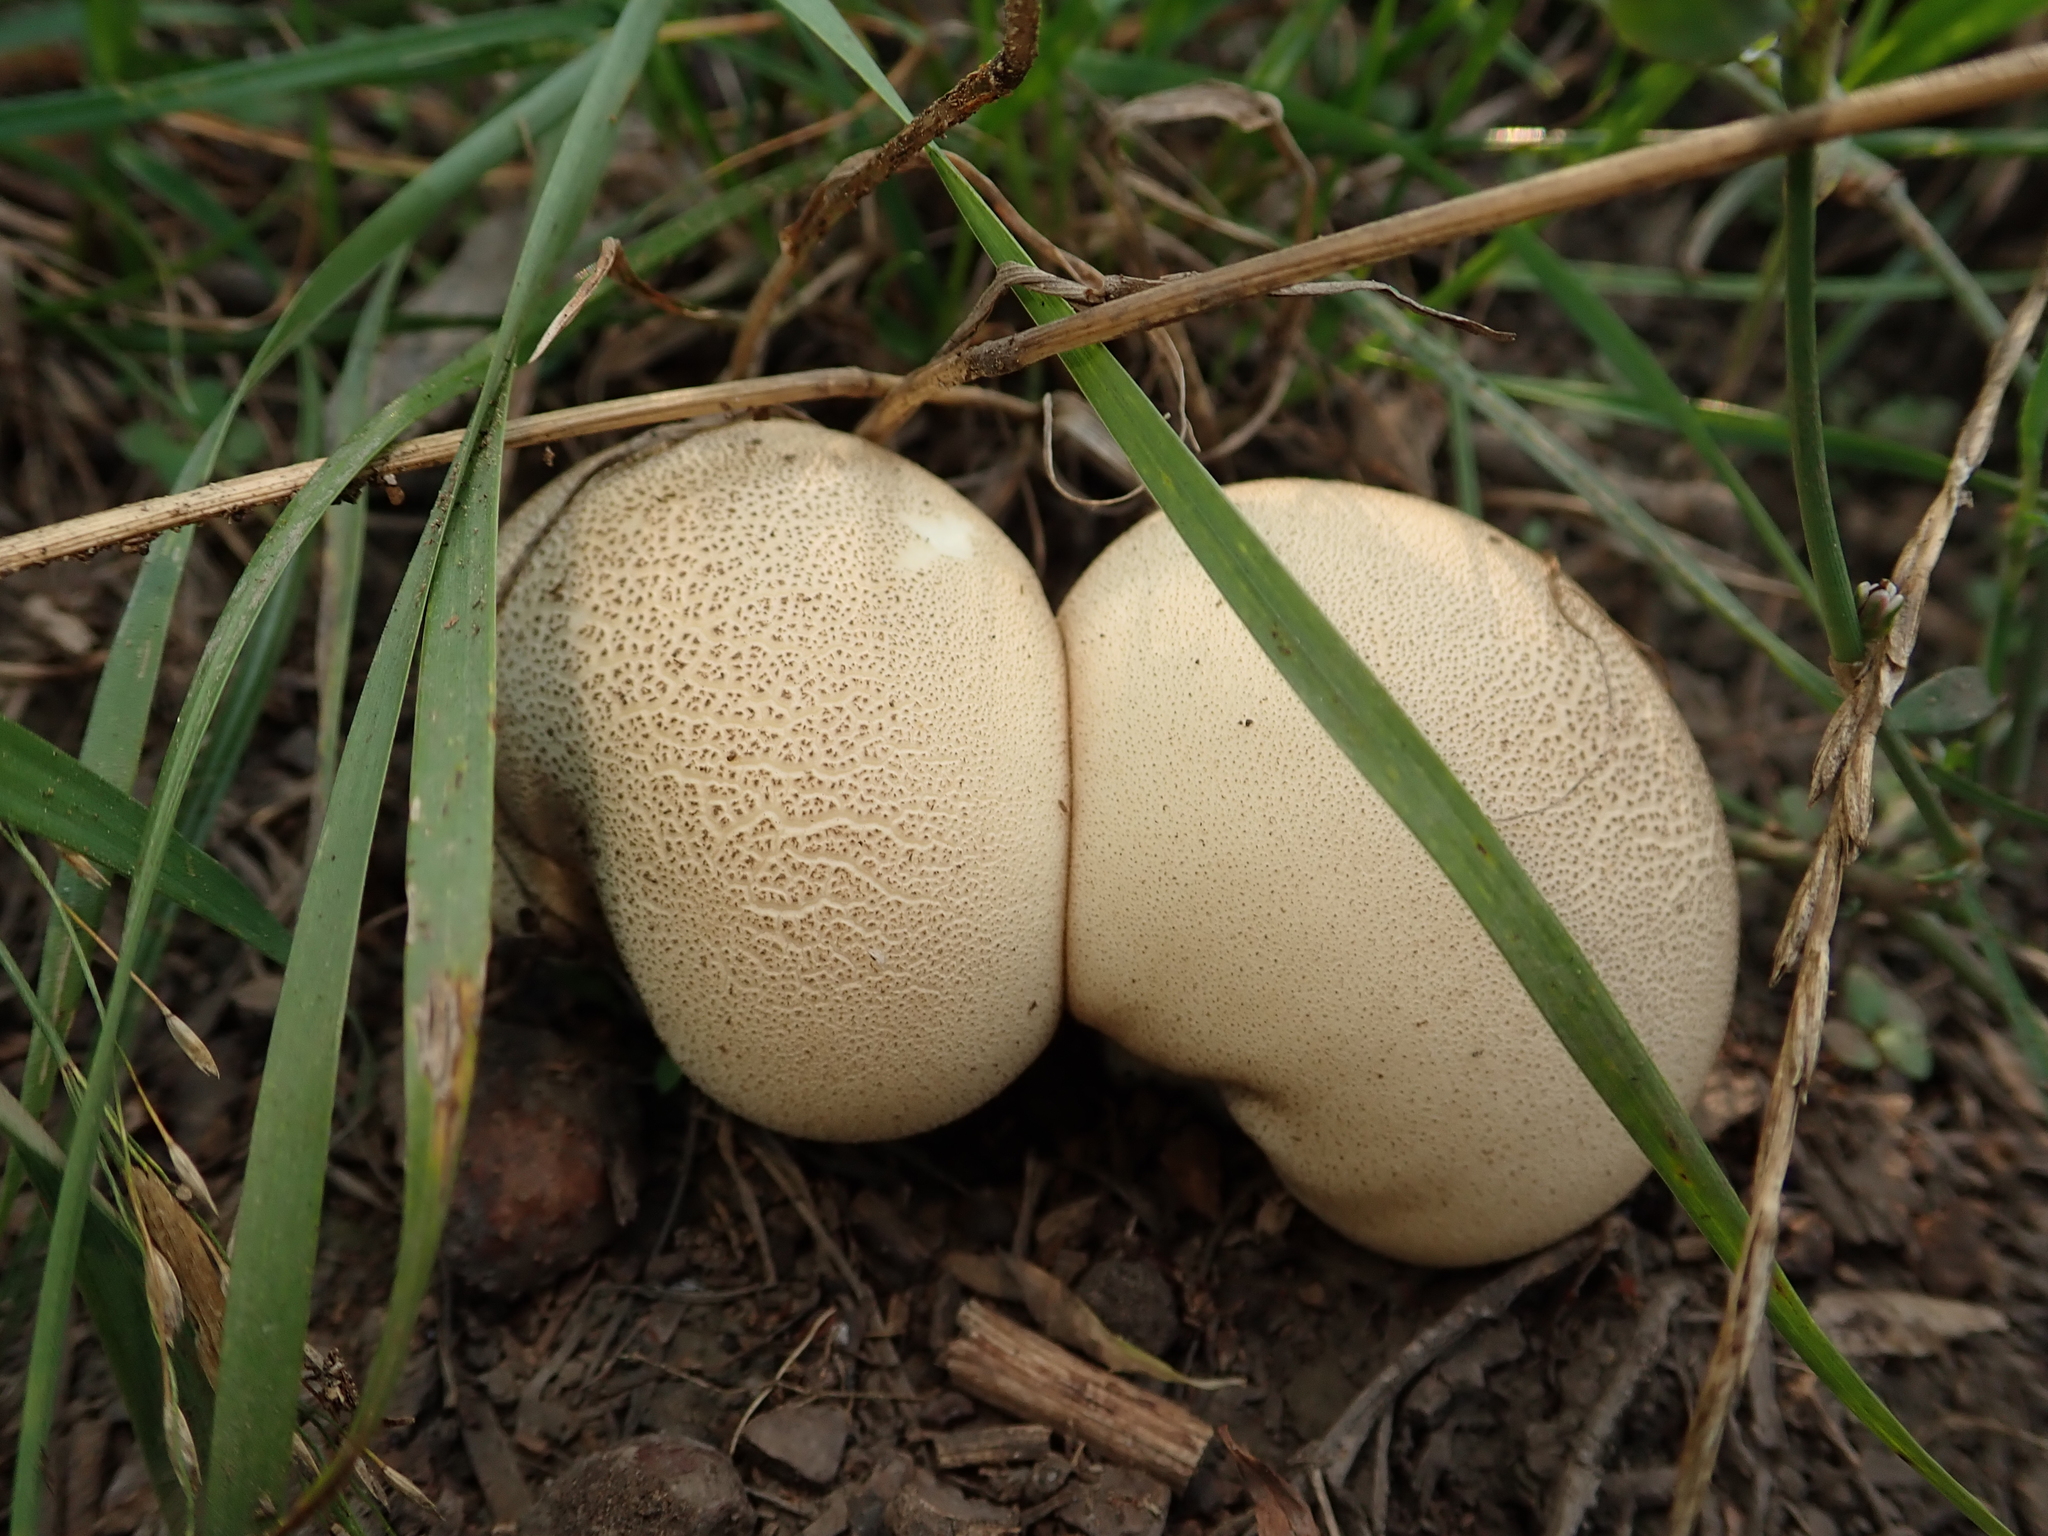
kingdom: Fungi
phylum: Basidiomycota
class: Agaricomycetes
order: Boletales
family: Sclerodermataceae
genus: Scleroderma
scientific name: Scleroderma citrinum
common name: Common earthball
